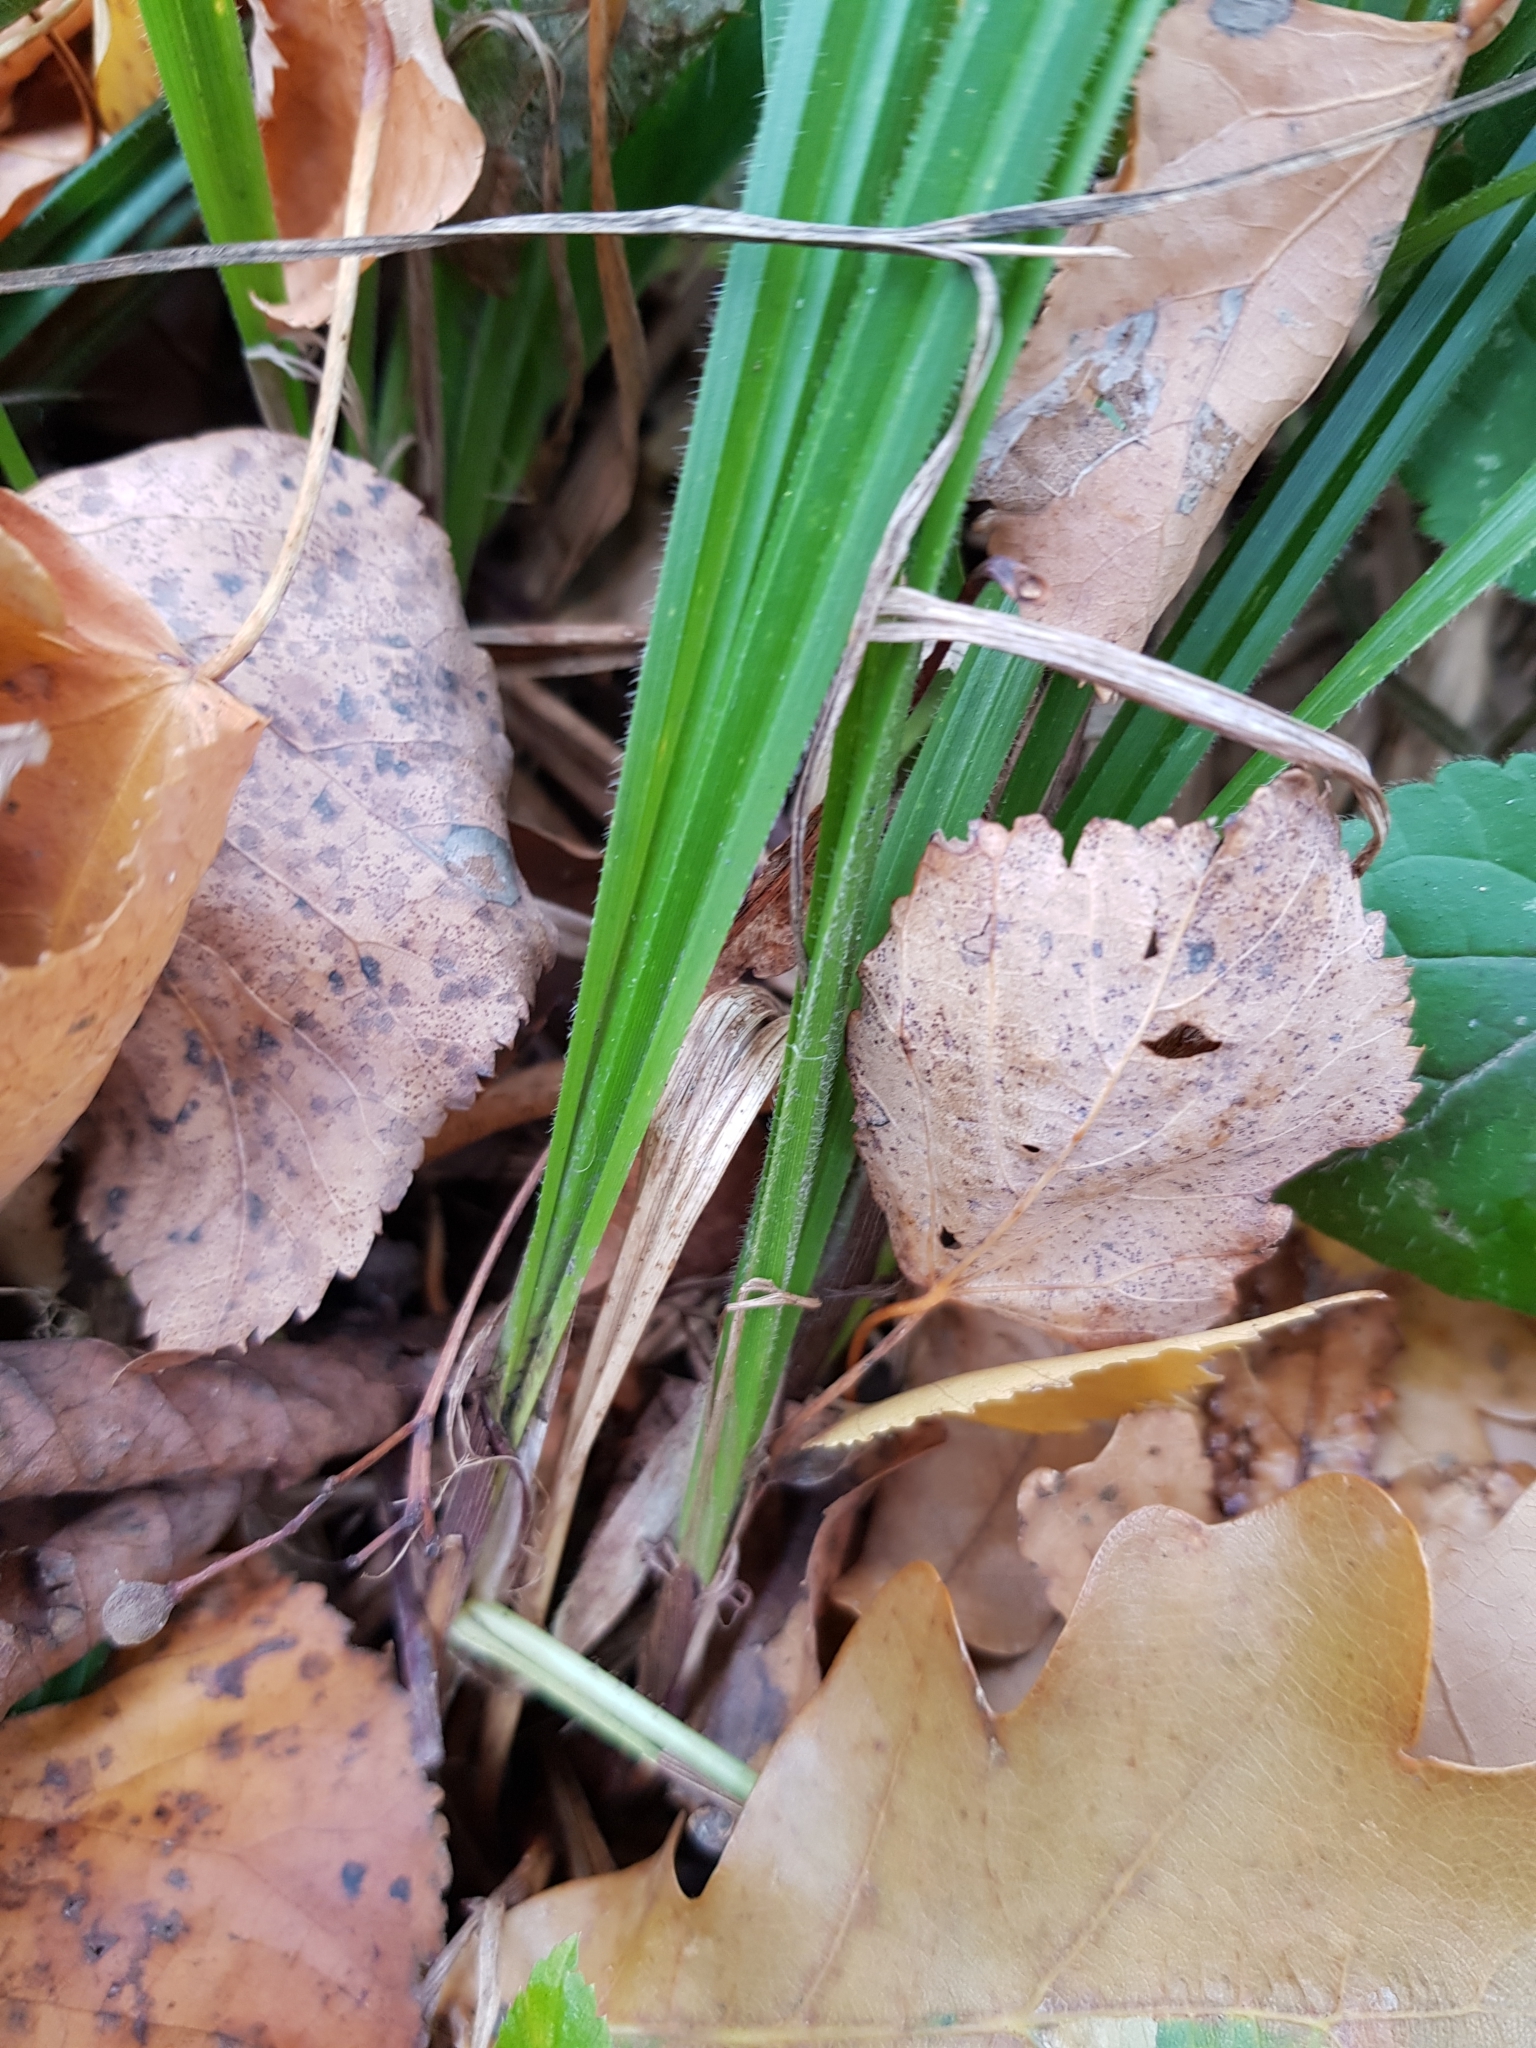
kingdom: Plantae
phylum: Tracheophyta
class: Liliopsida
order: Poales
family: Cyperaceae
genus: Carex
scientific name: Carex pilosa
